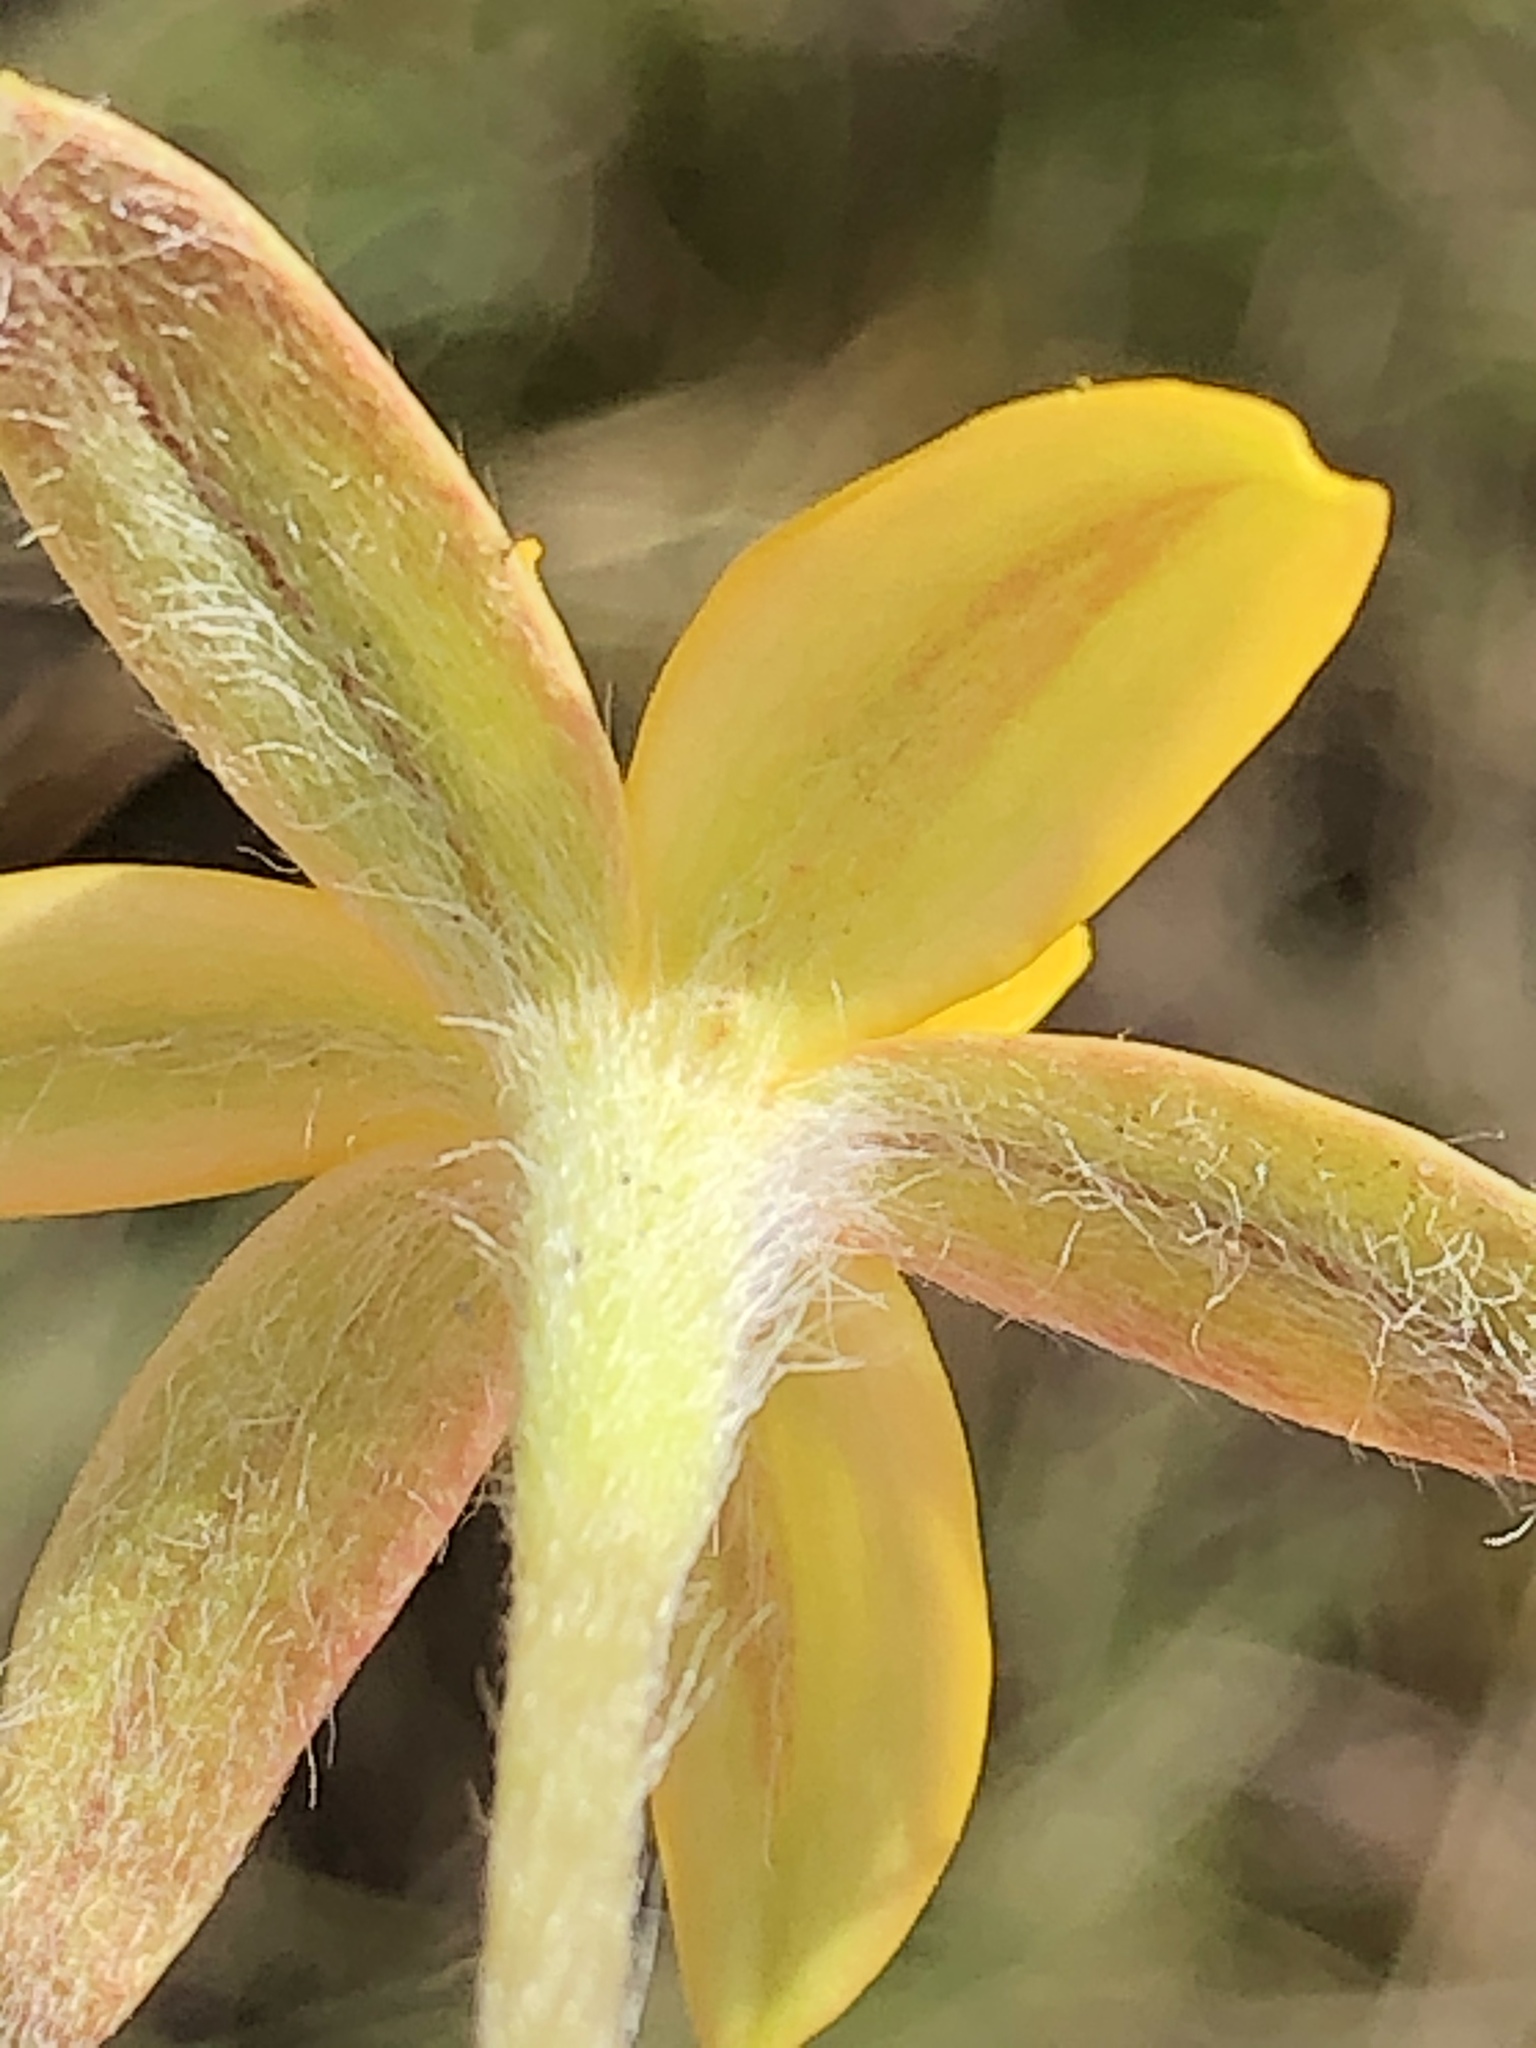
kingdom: Plantae
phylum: Tracheophyta
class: Liliopsida
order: Asparagales
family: Hypoxidaceae
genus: Hypoxis
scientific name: Hypoxis sobolifera
